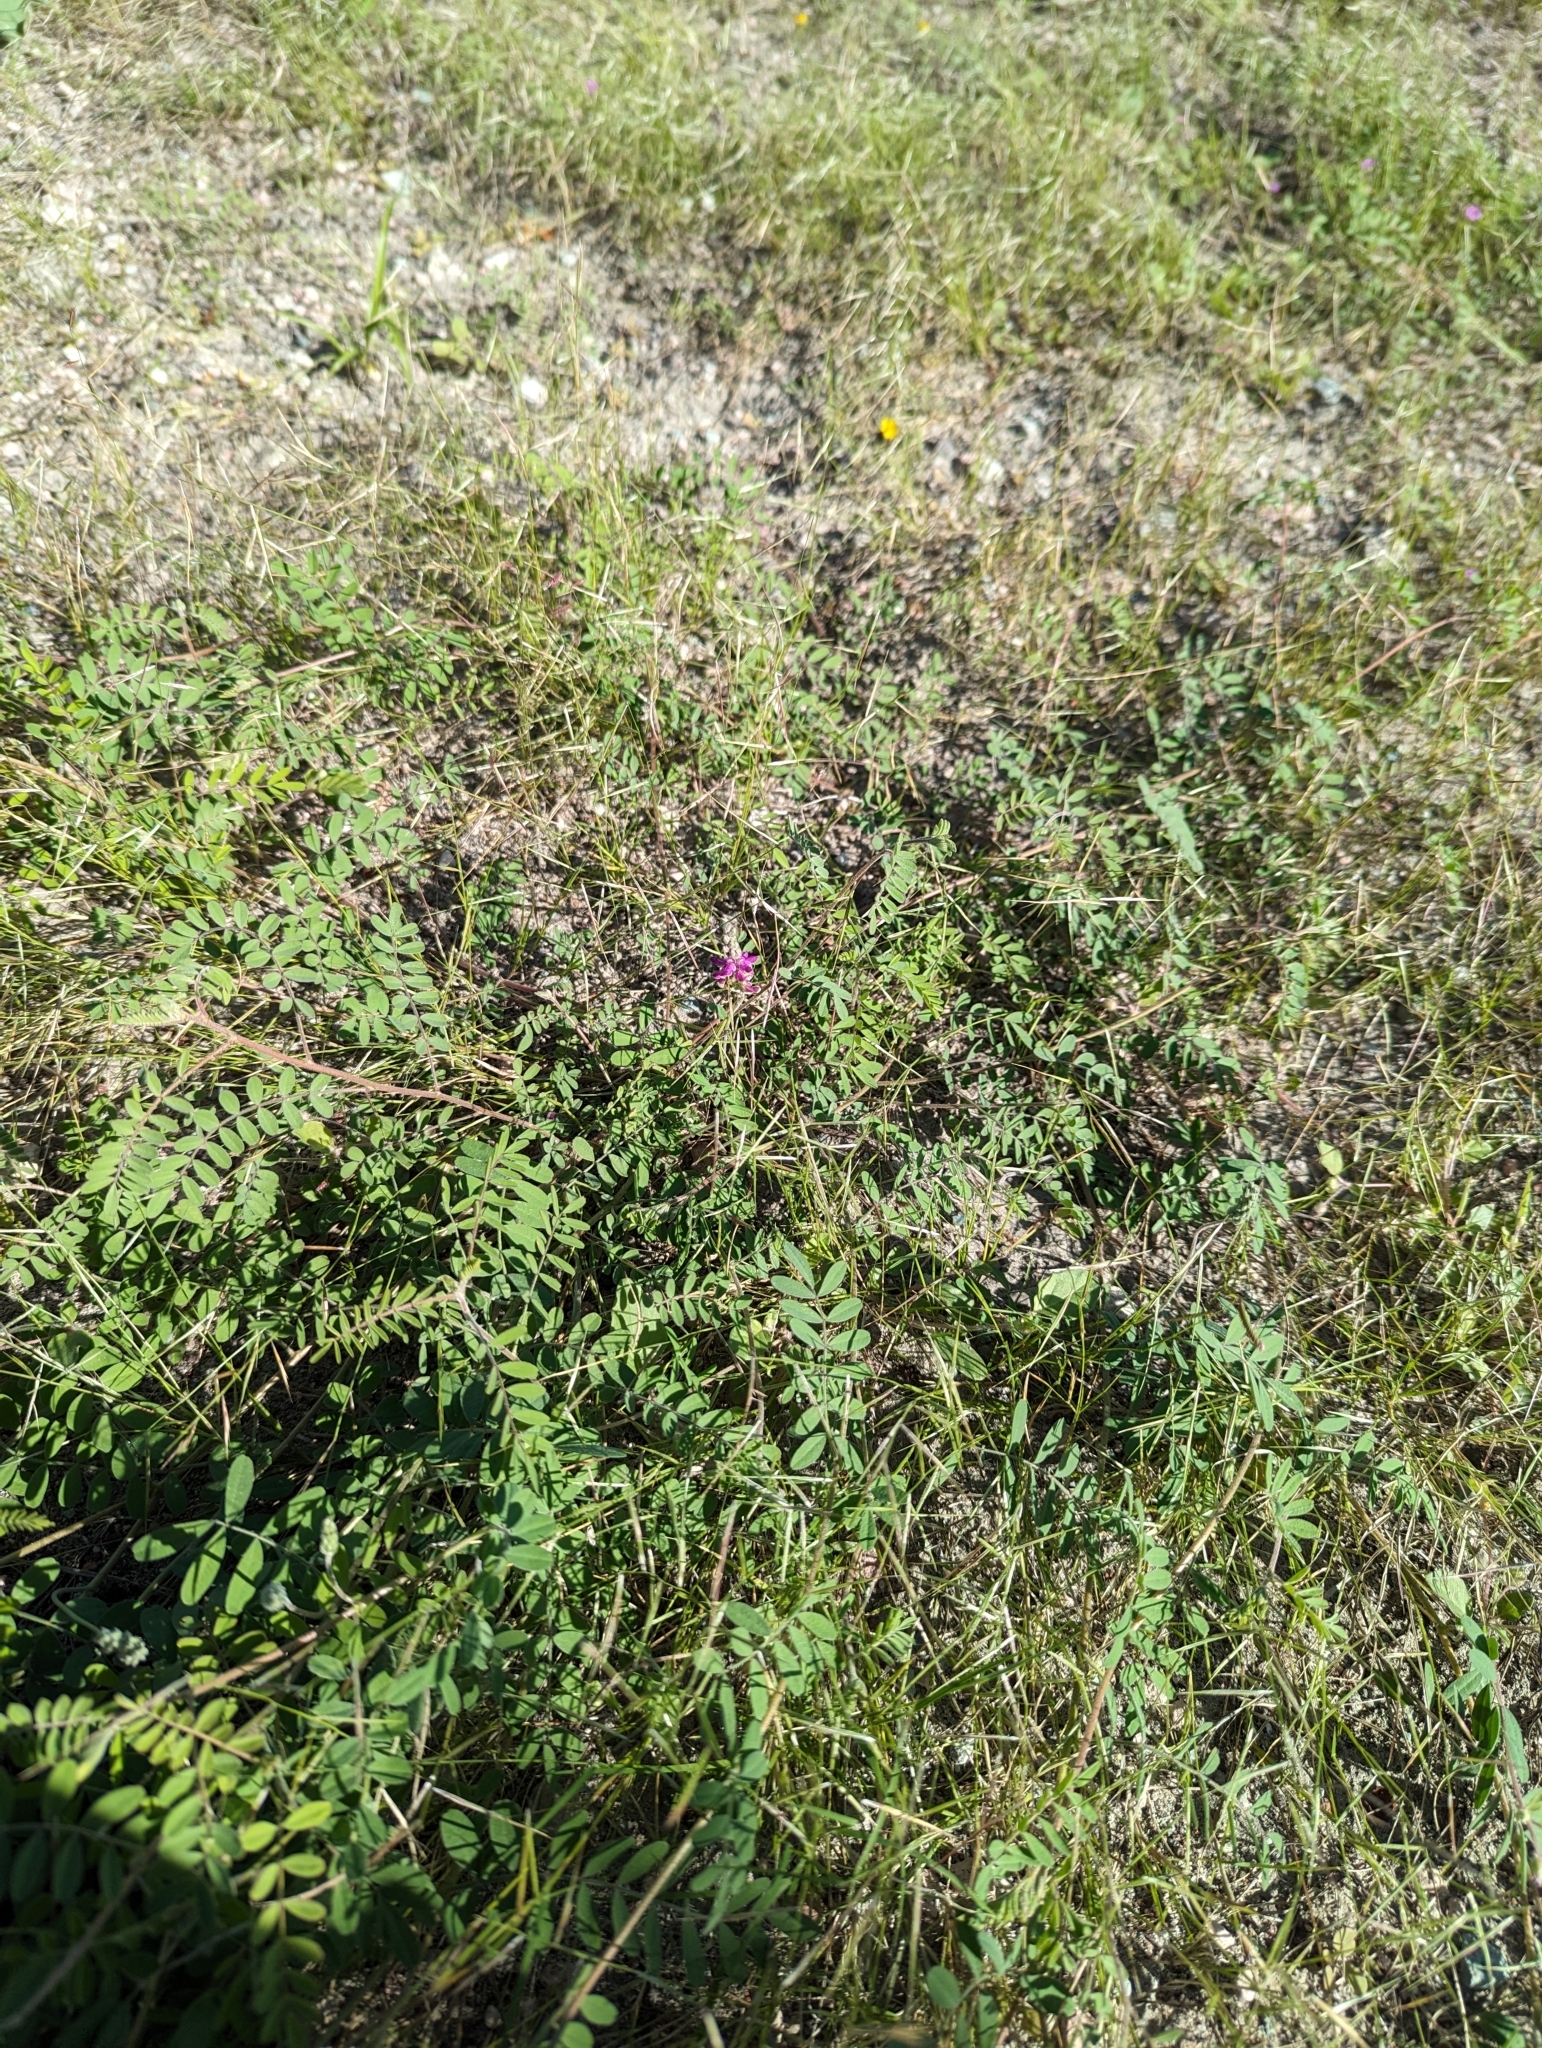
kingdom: Plantae
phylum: Tracheophyta
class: Magnoliopsida
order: Fabales
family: Fabaceae
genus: Dalea
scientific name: Dalea bicolor
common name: Silver prairie-clover
